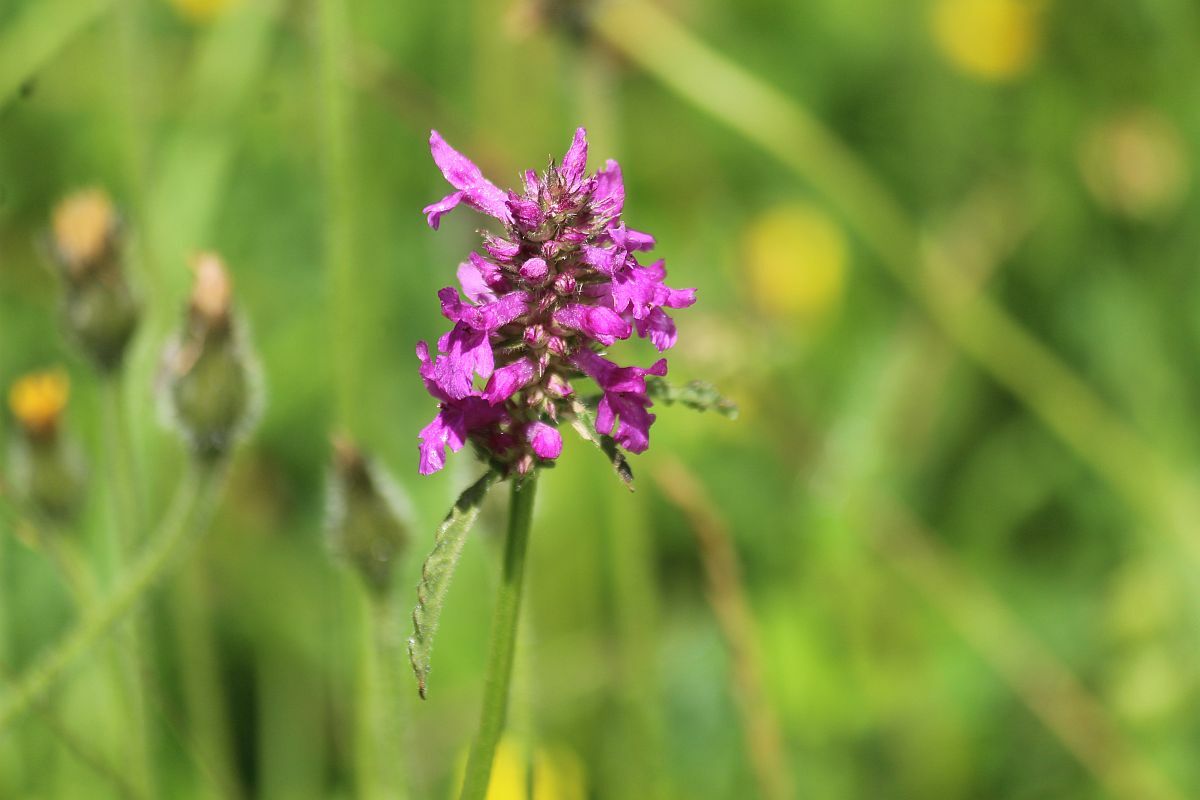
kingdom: Plantae
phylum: Tracheophyta
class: Magnoliopsida
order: Lamiales
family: Lamiaceae
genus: Betonica
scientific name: Betonica officinalis
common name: Bishop's-wort
